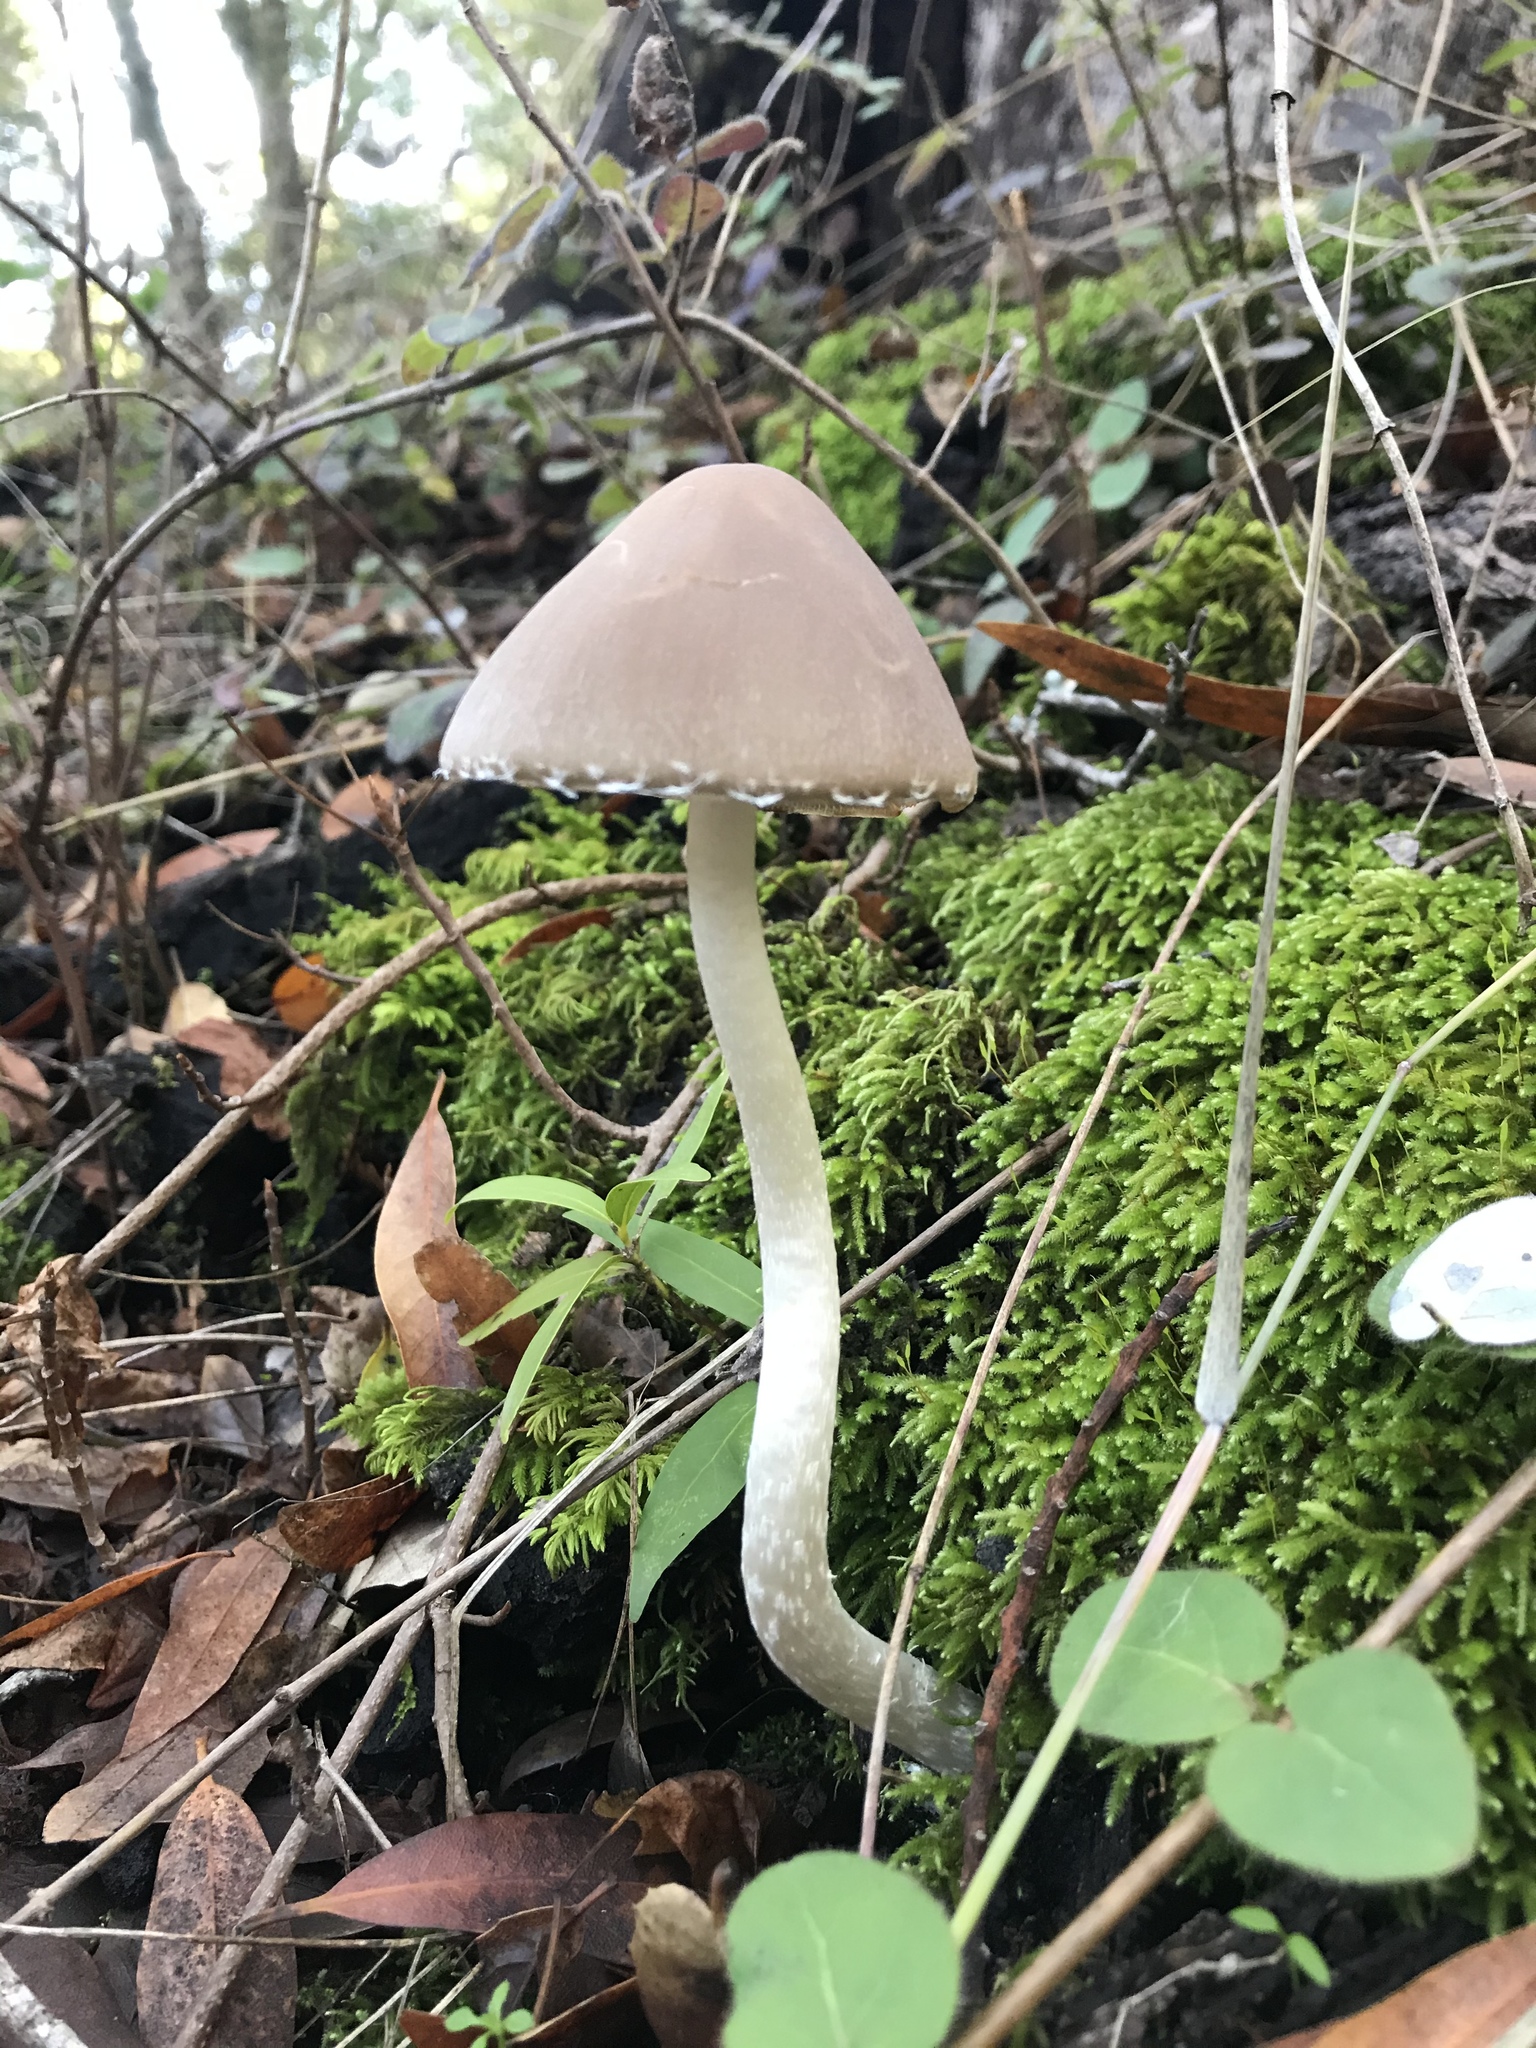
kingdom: Fungi
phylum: Basidiomycota
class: Agaricomycetes
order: Agaricales
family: Psathyrellaceae
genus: Psathyrella
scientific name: Psathyrella longipes
